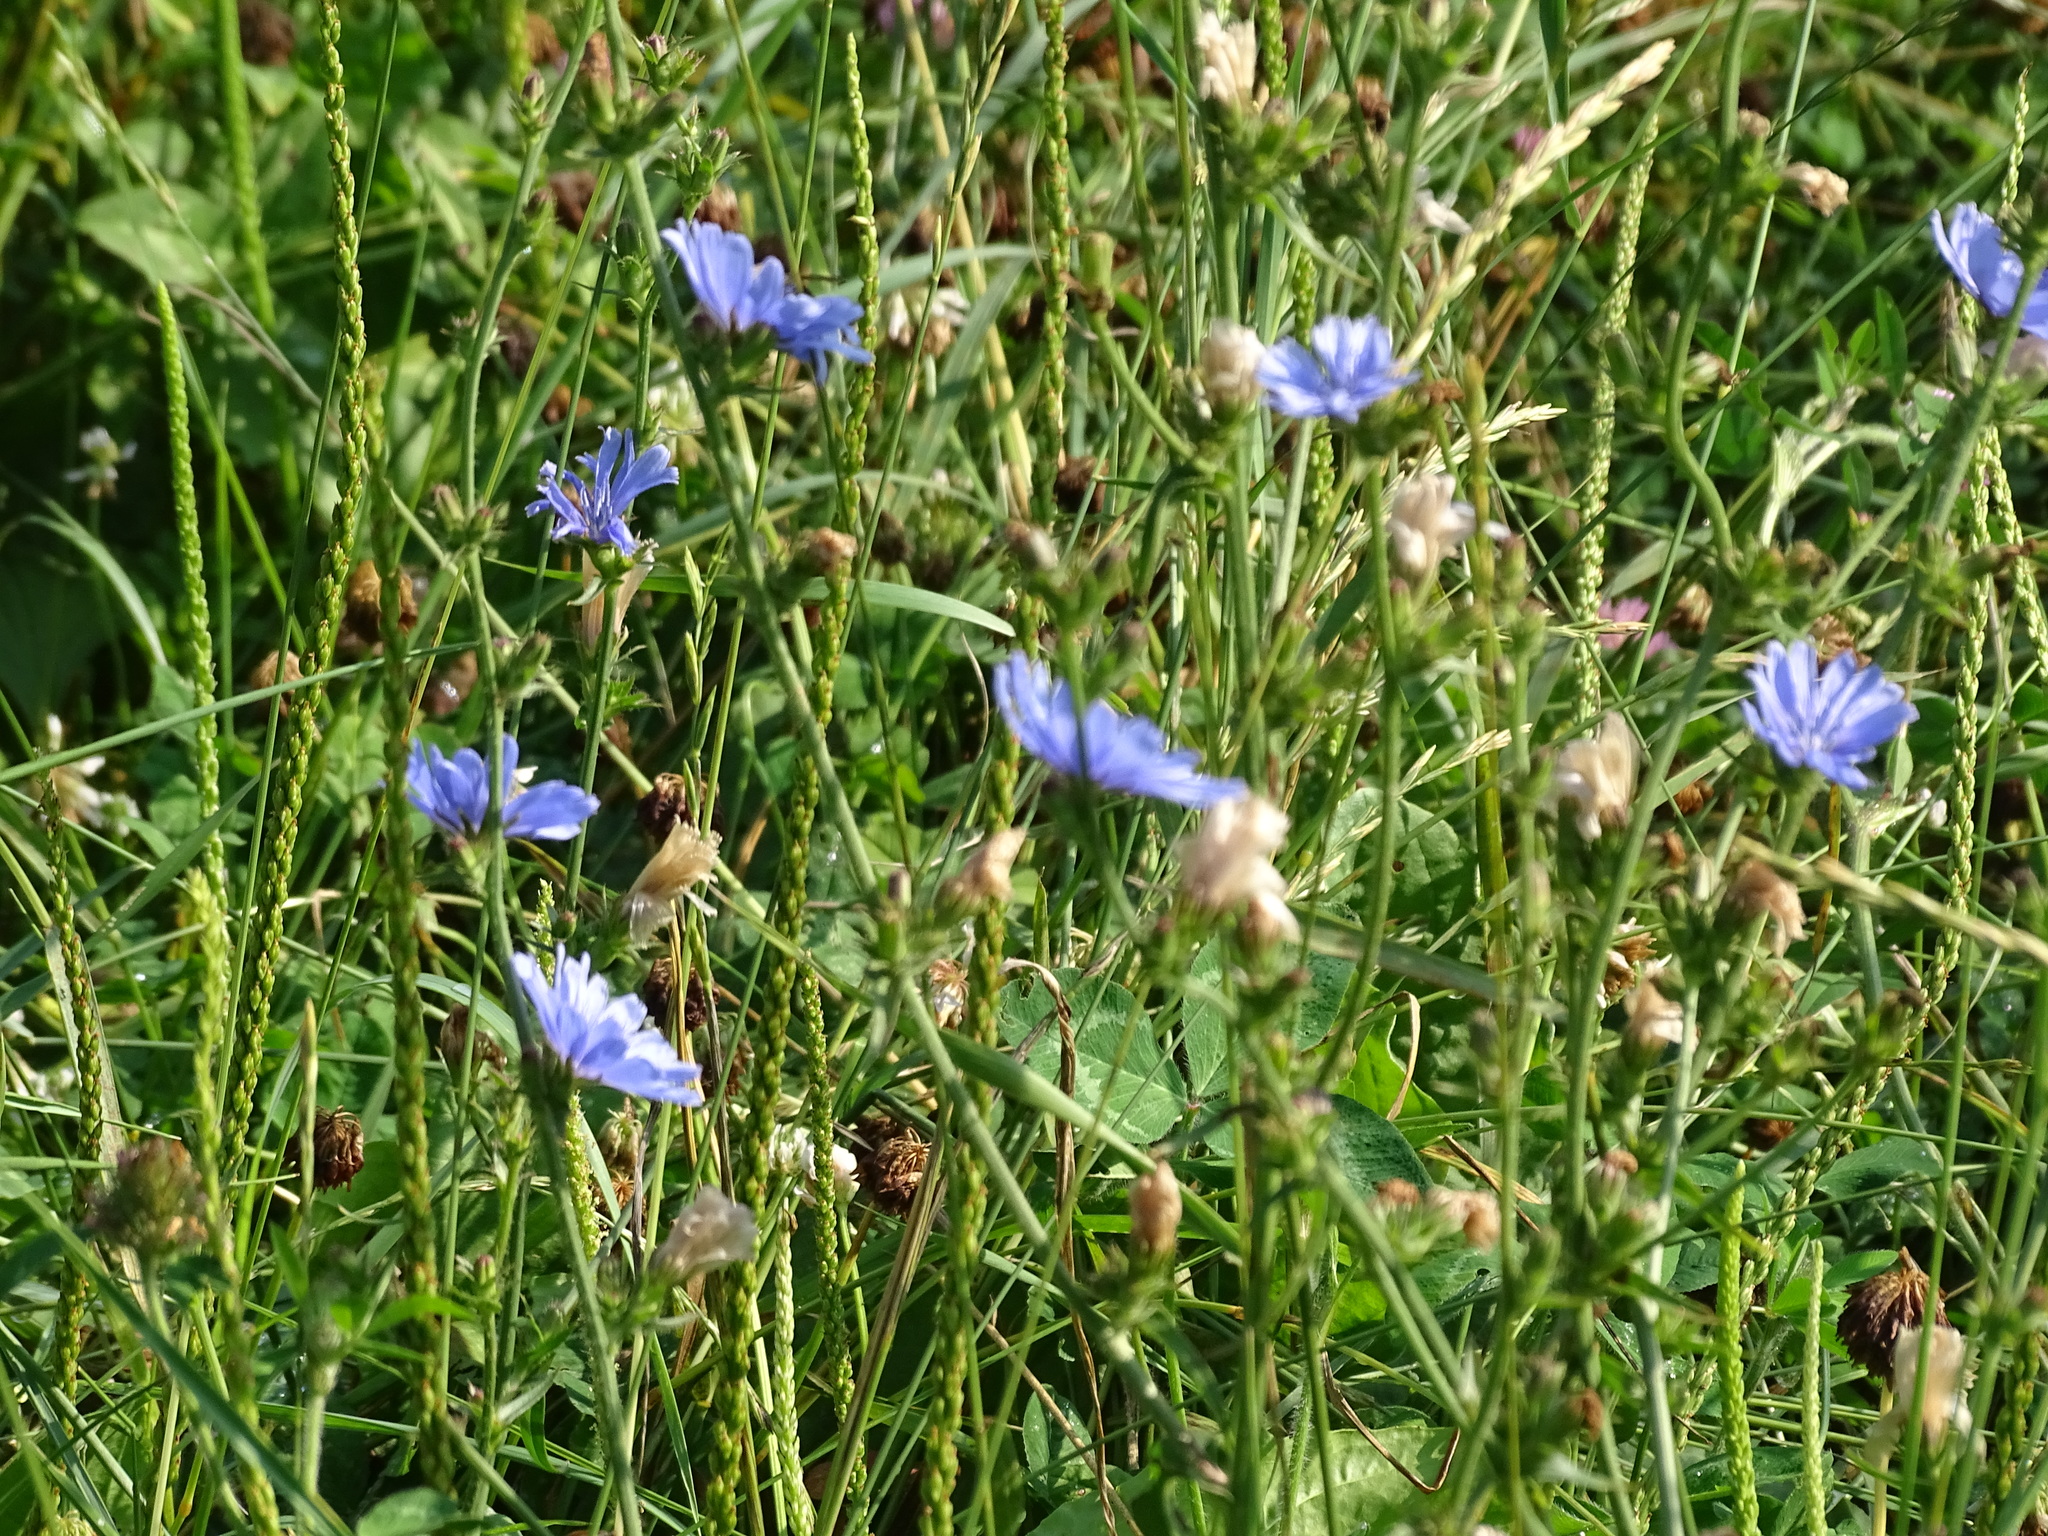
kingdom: Plantae
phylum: Tracheophyta
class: Magnoliopsida
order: Asterales
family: Asteraceae
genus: Cichorium
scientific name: Cichorium intybus
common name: Chicory
